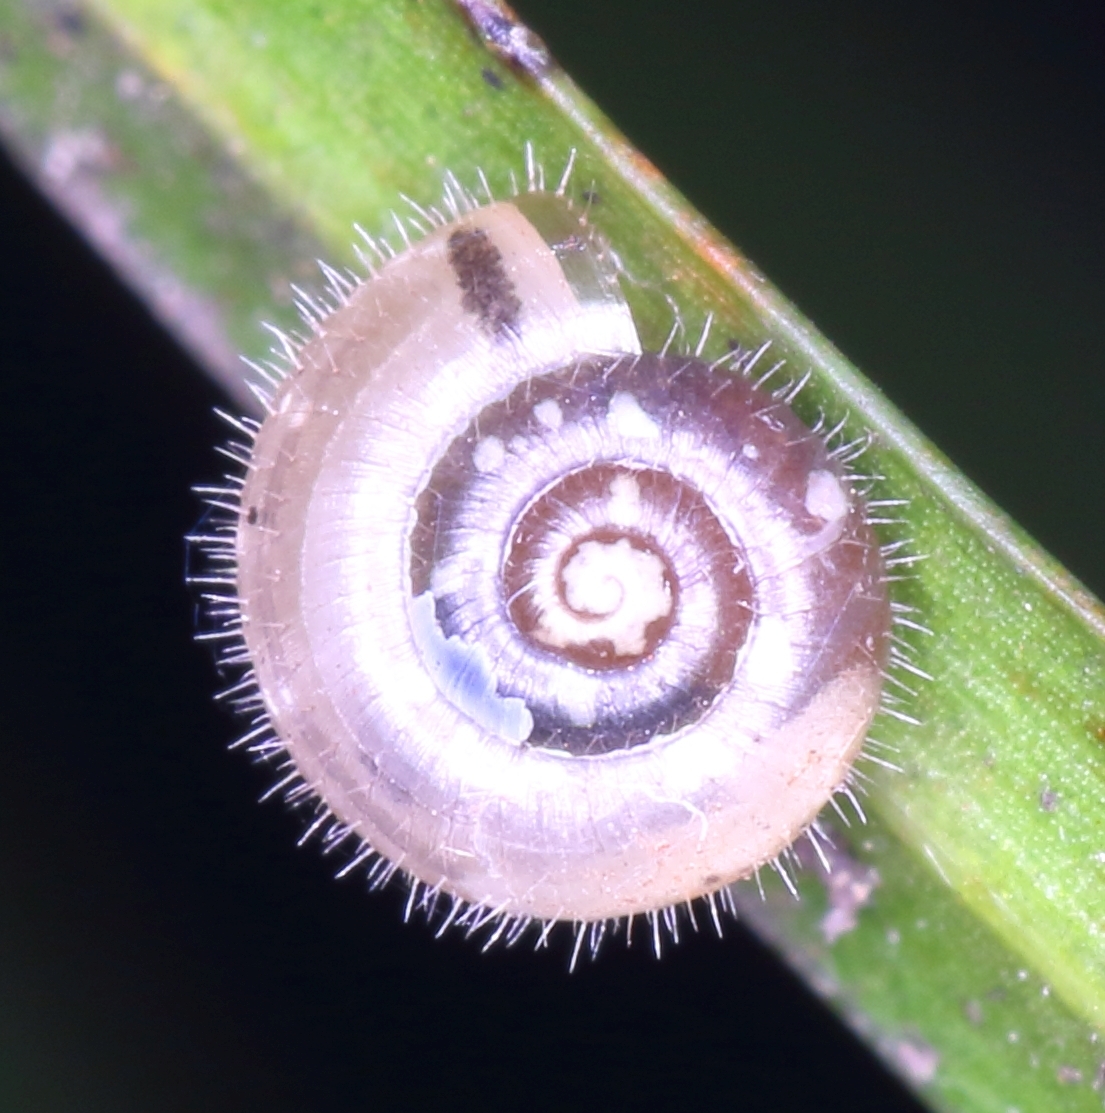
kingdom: Animalia
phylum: Mollusca
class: Gastropoda
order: Stylommatophora
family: Charopidae
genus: Chilocystis
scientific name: Chilocystis conisalea
